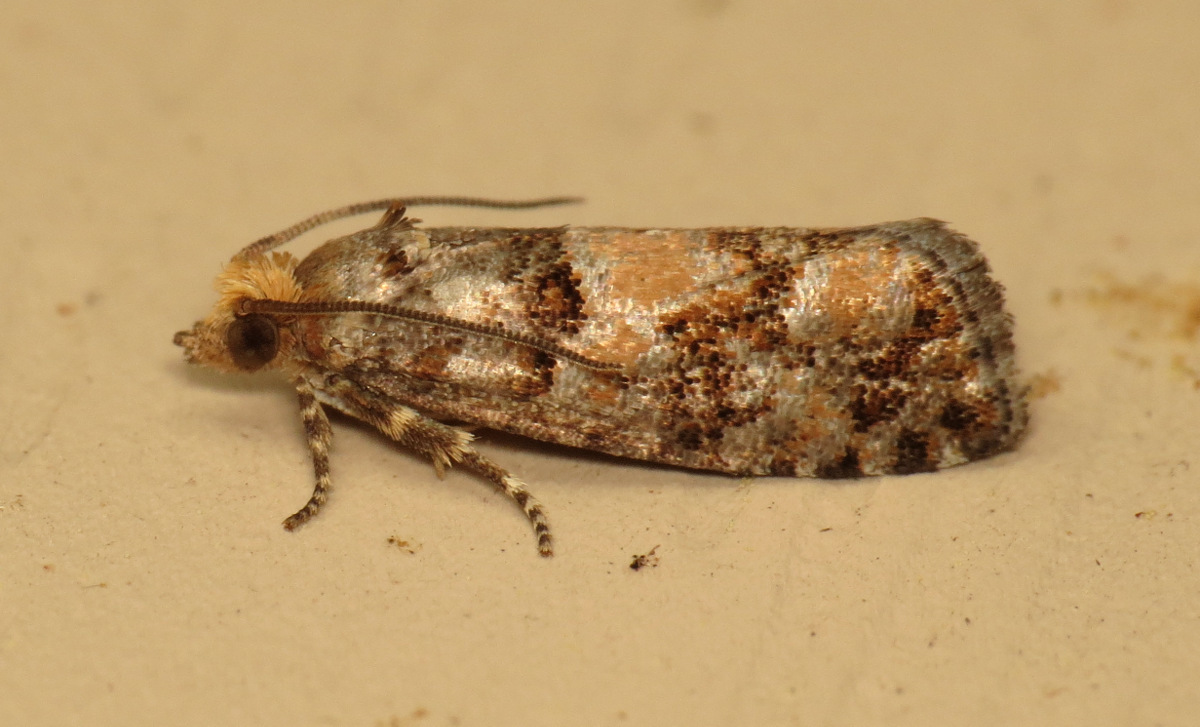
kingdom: Animalia
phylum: Arthropoda
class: Insecta
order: Lepidoptera
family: Tortricidae
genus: Eucopina
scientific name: Eucopina tocullionana
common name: White pinecone borer moth
